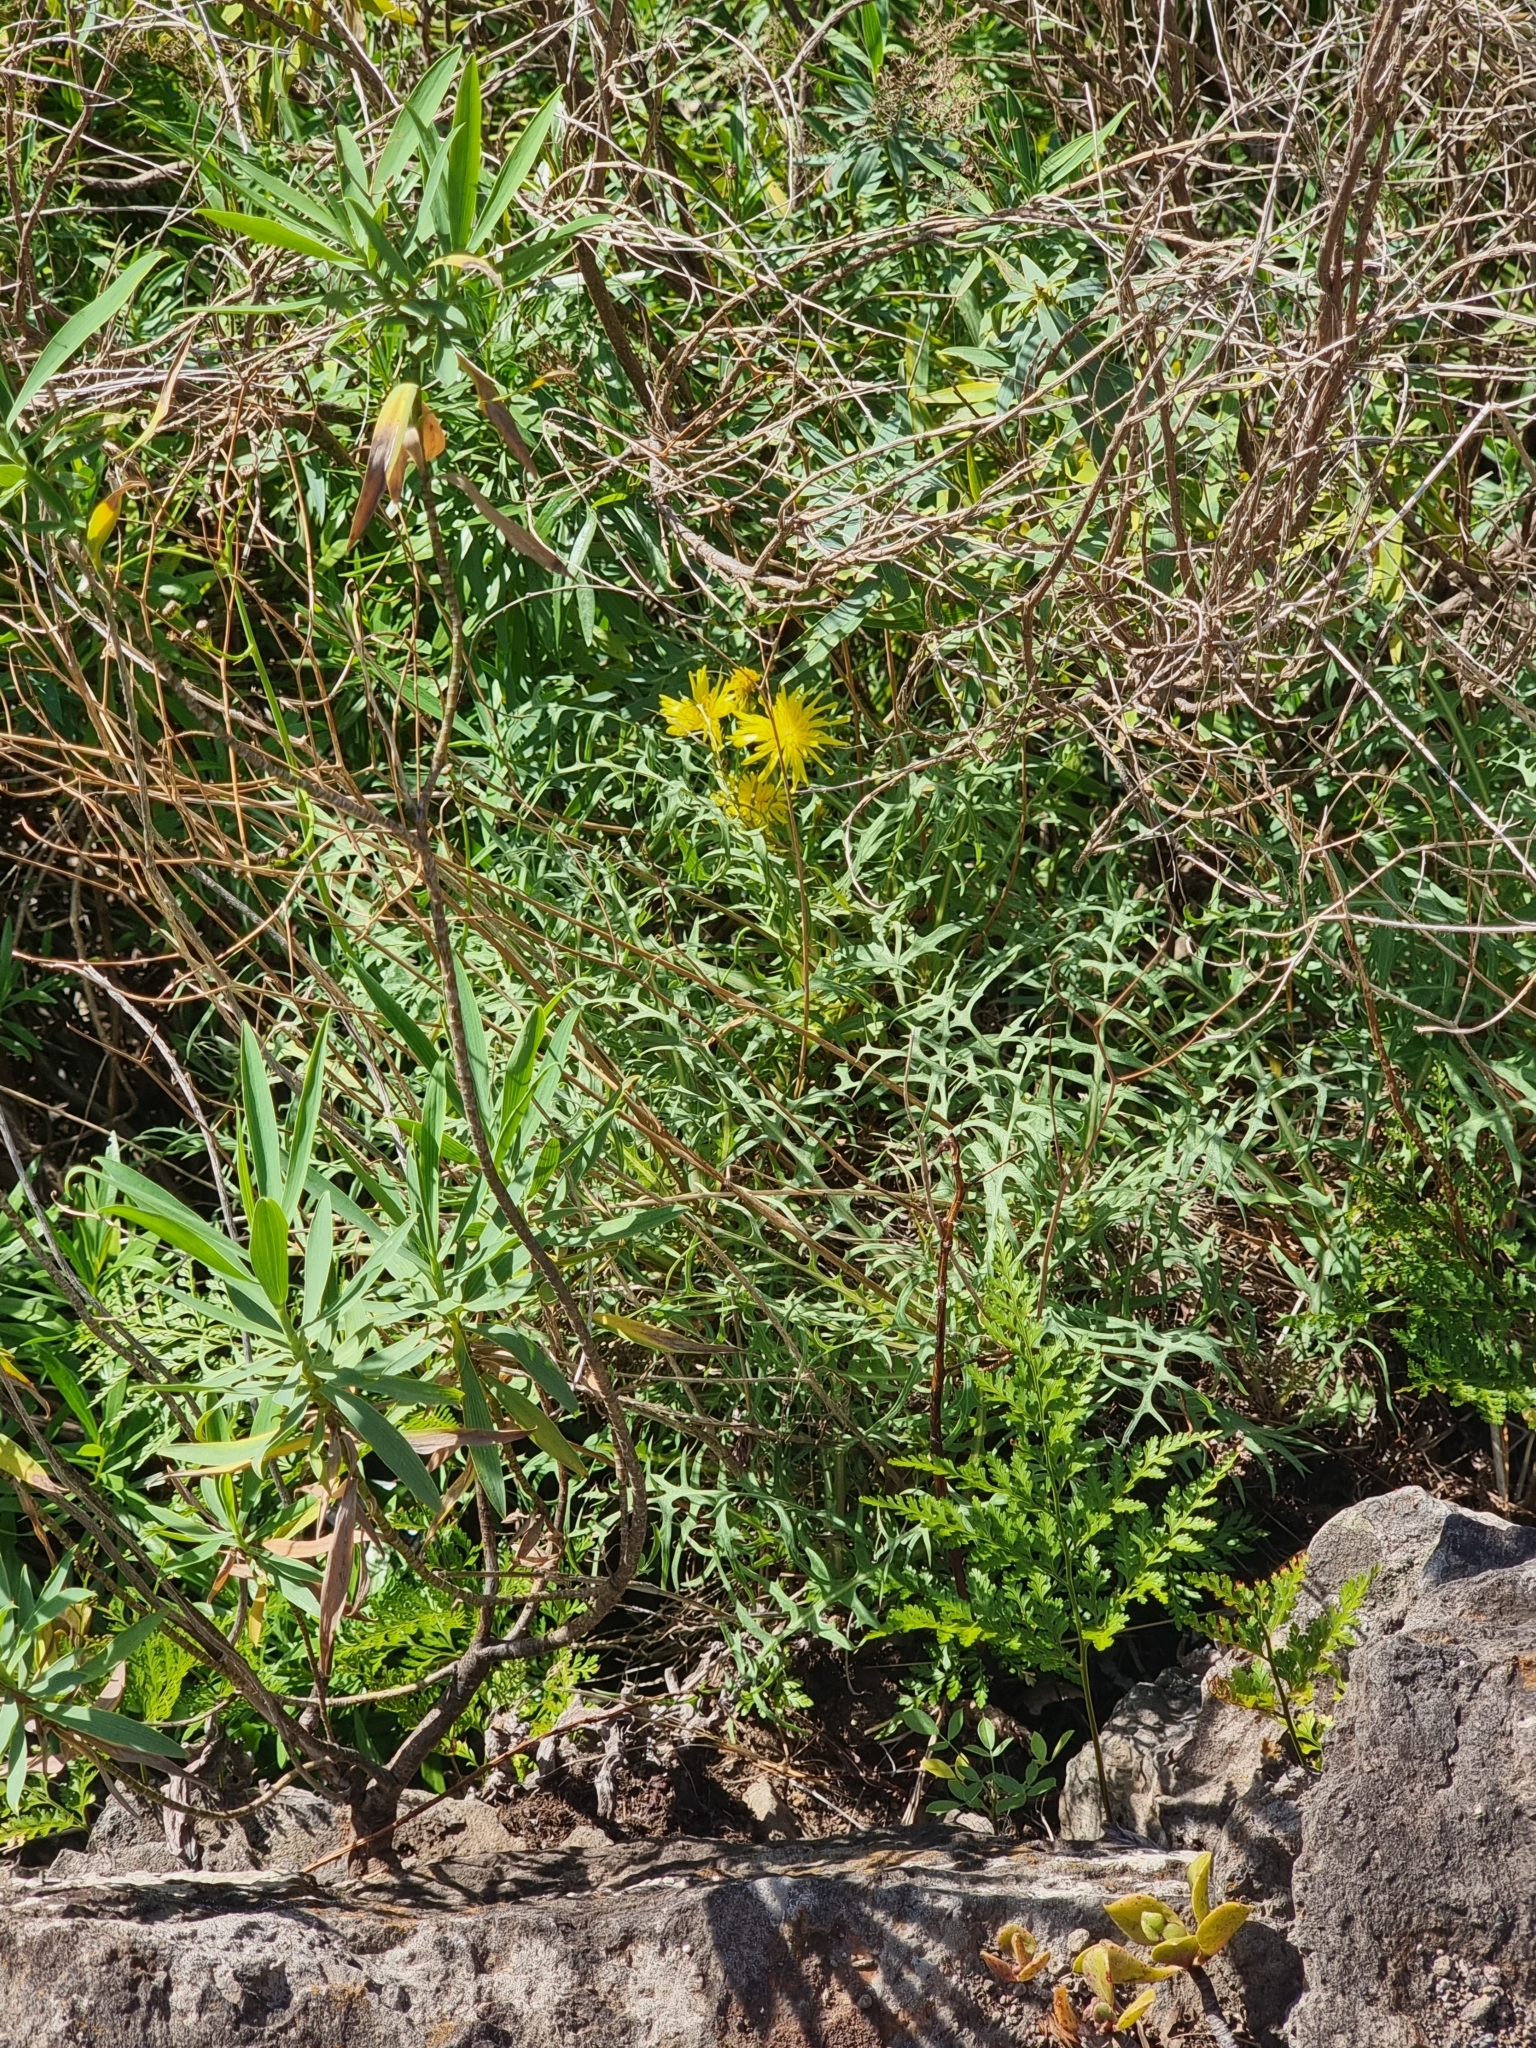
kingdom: Plantae
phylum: Tracheophyta
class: Magnoliopsida
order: Asterales
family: Asteraceae
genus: Sonchus
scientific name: Sonchus ustulatus
